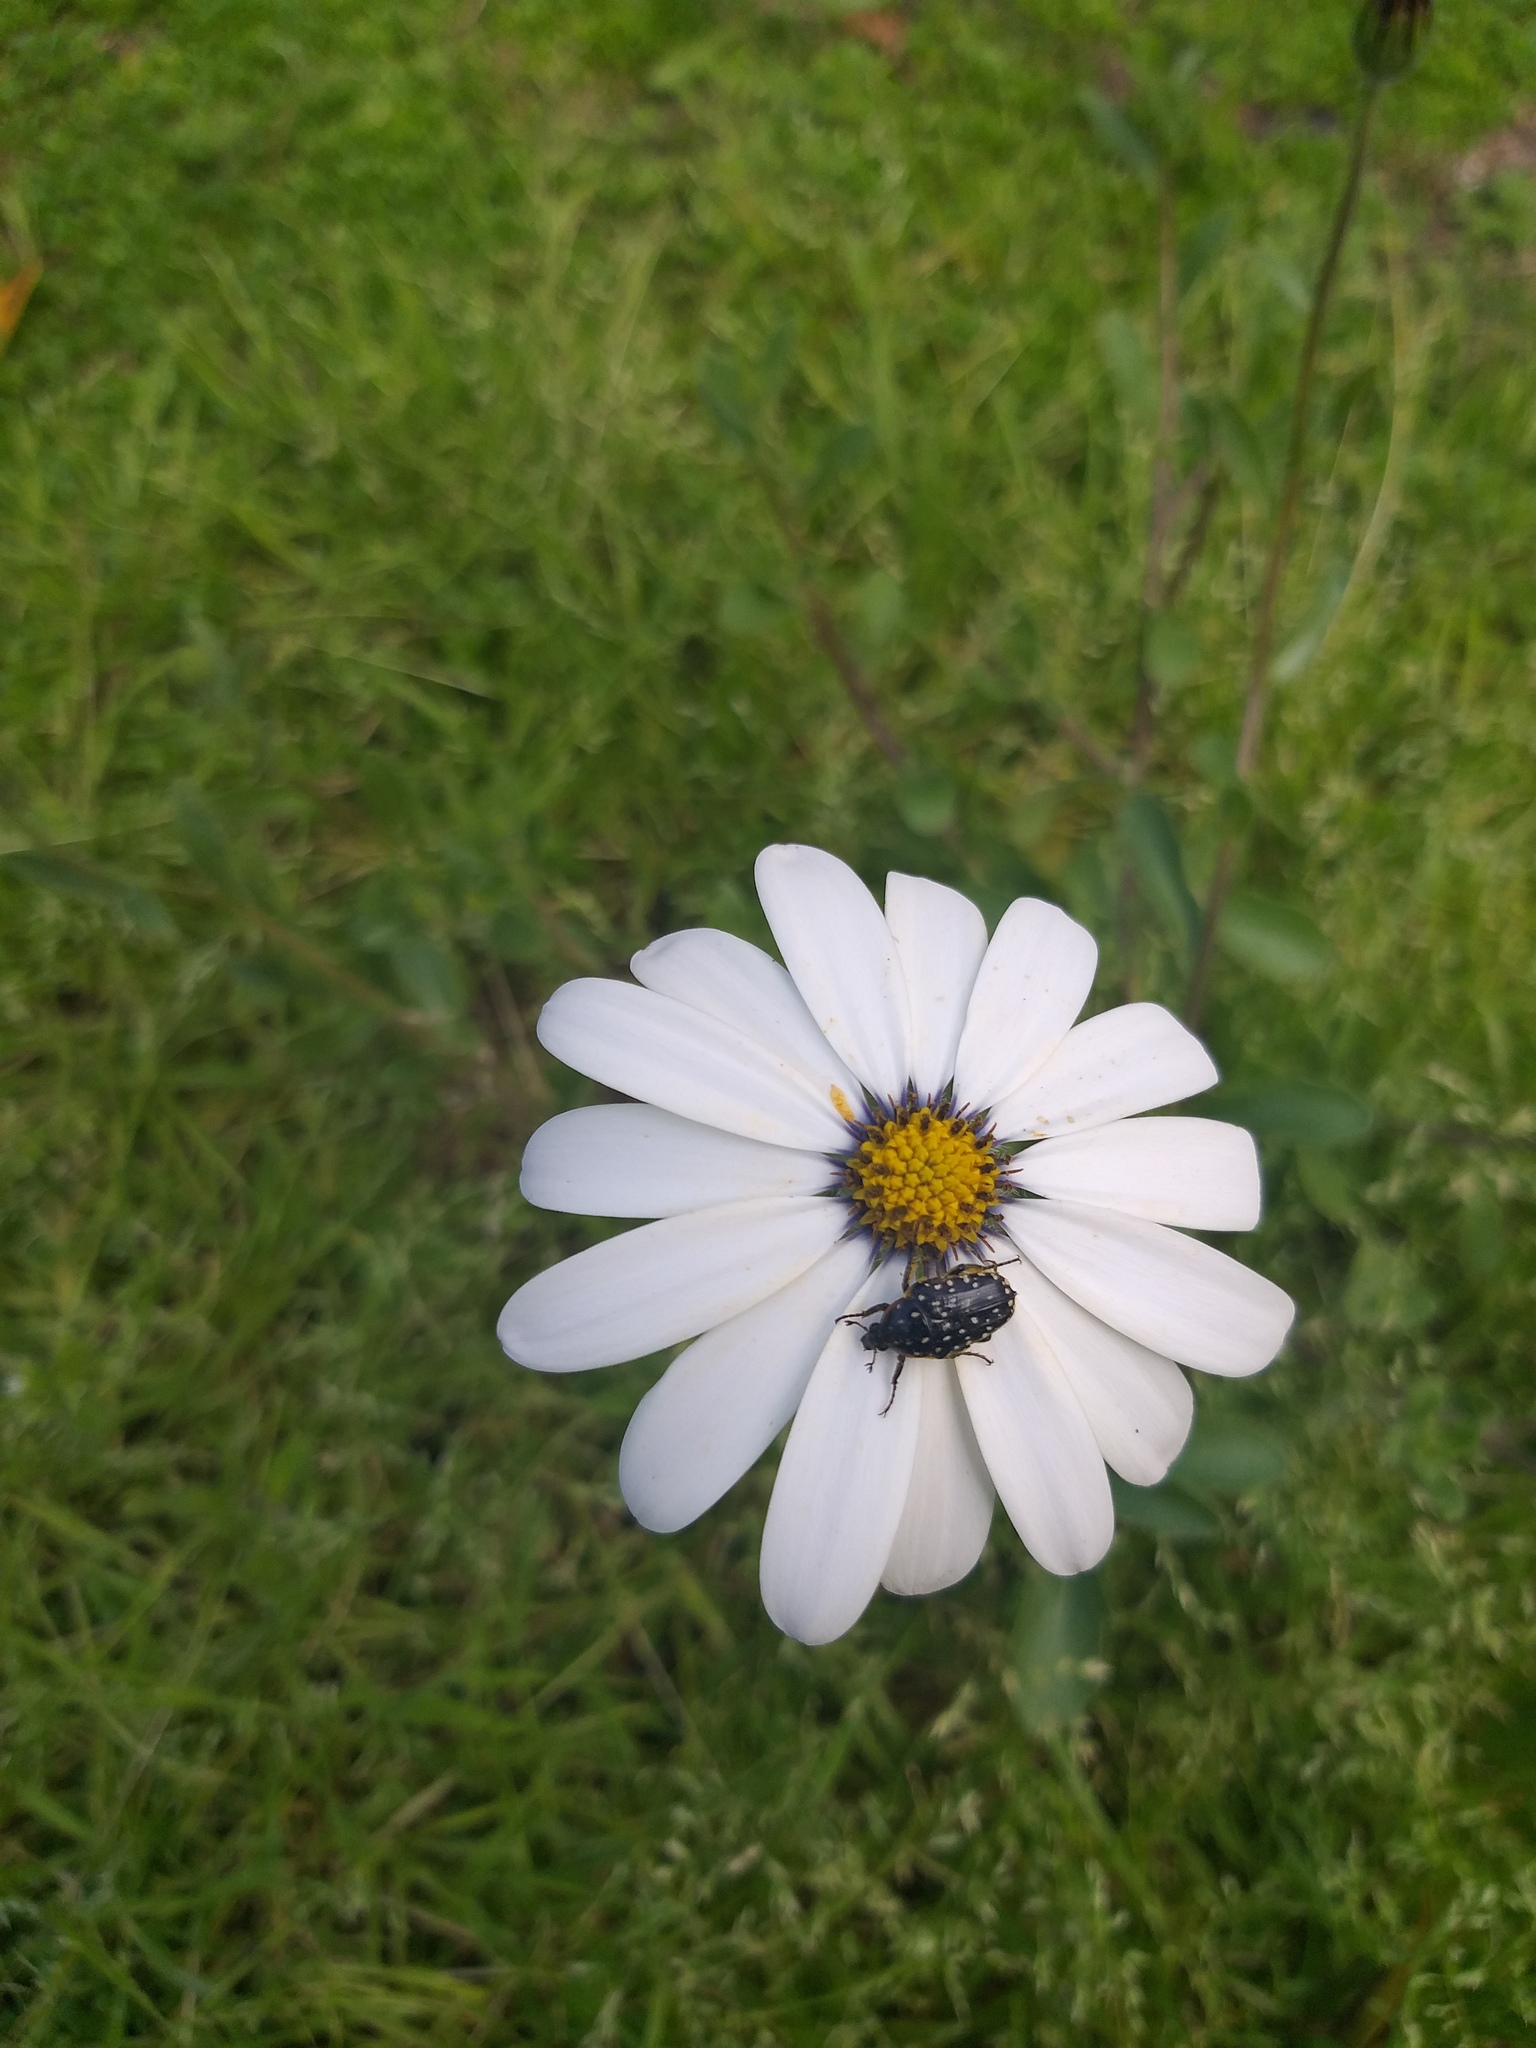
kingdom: Animalia
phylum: Arthropoda
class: Insecta
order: Coleoptera
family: Scarabaeidae
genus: Oxythyrea
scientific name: Oxythyrea
